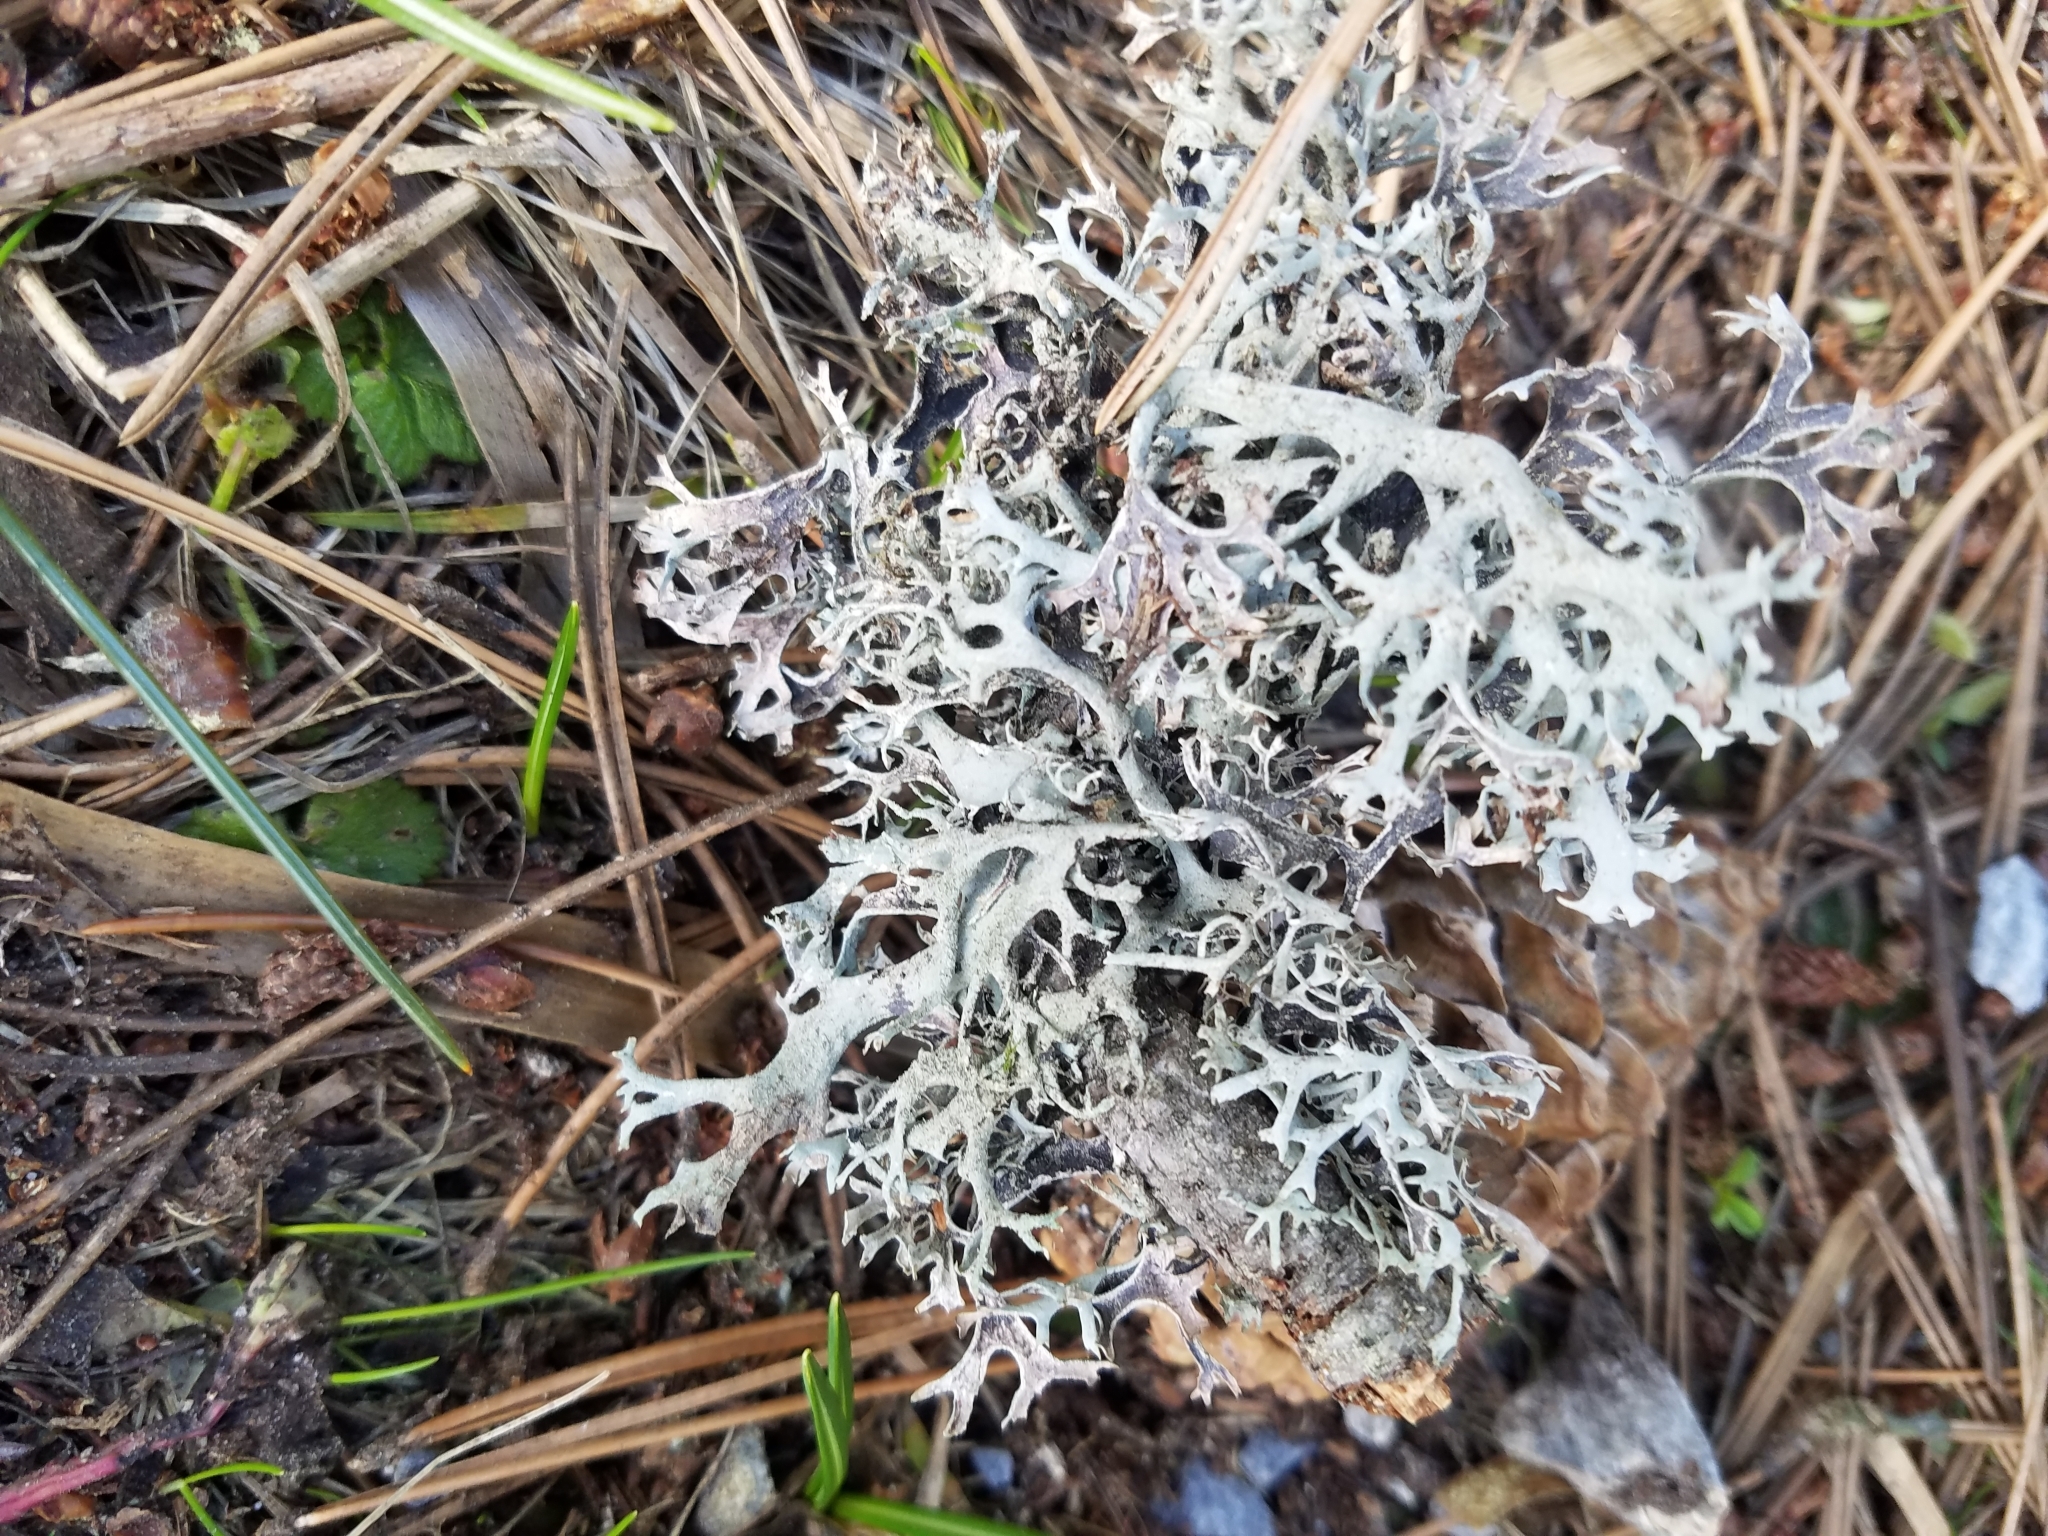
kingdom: Fungi
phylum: Ascomycota
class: Lecanoromycetes
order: Lecanorales
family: Parmeliaceae
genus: Pseudevernia
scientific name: Pseudevernia furfuracea
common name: Tree moss
